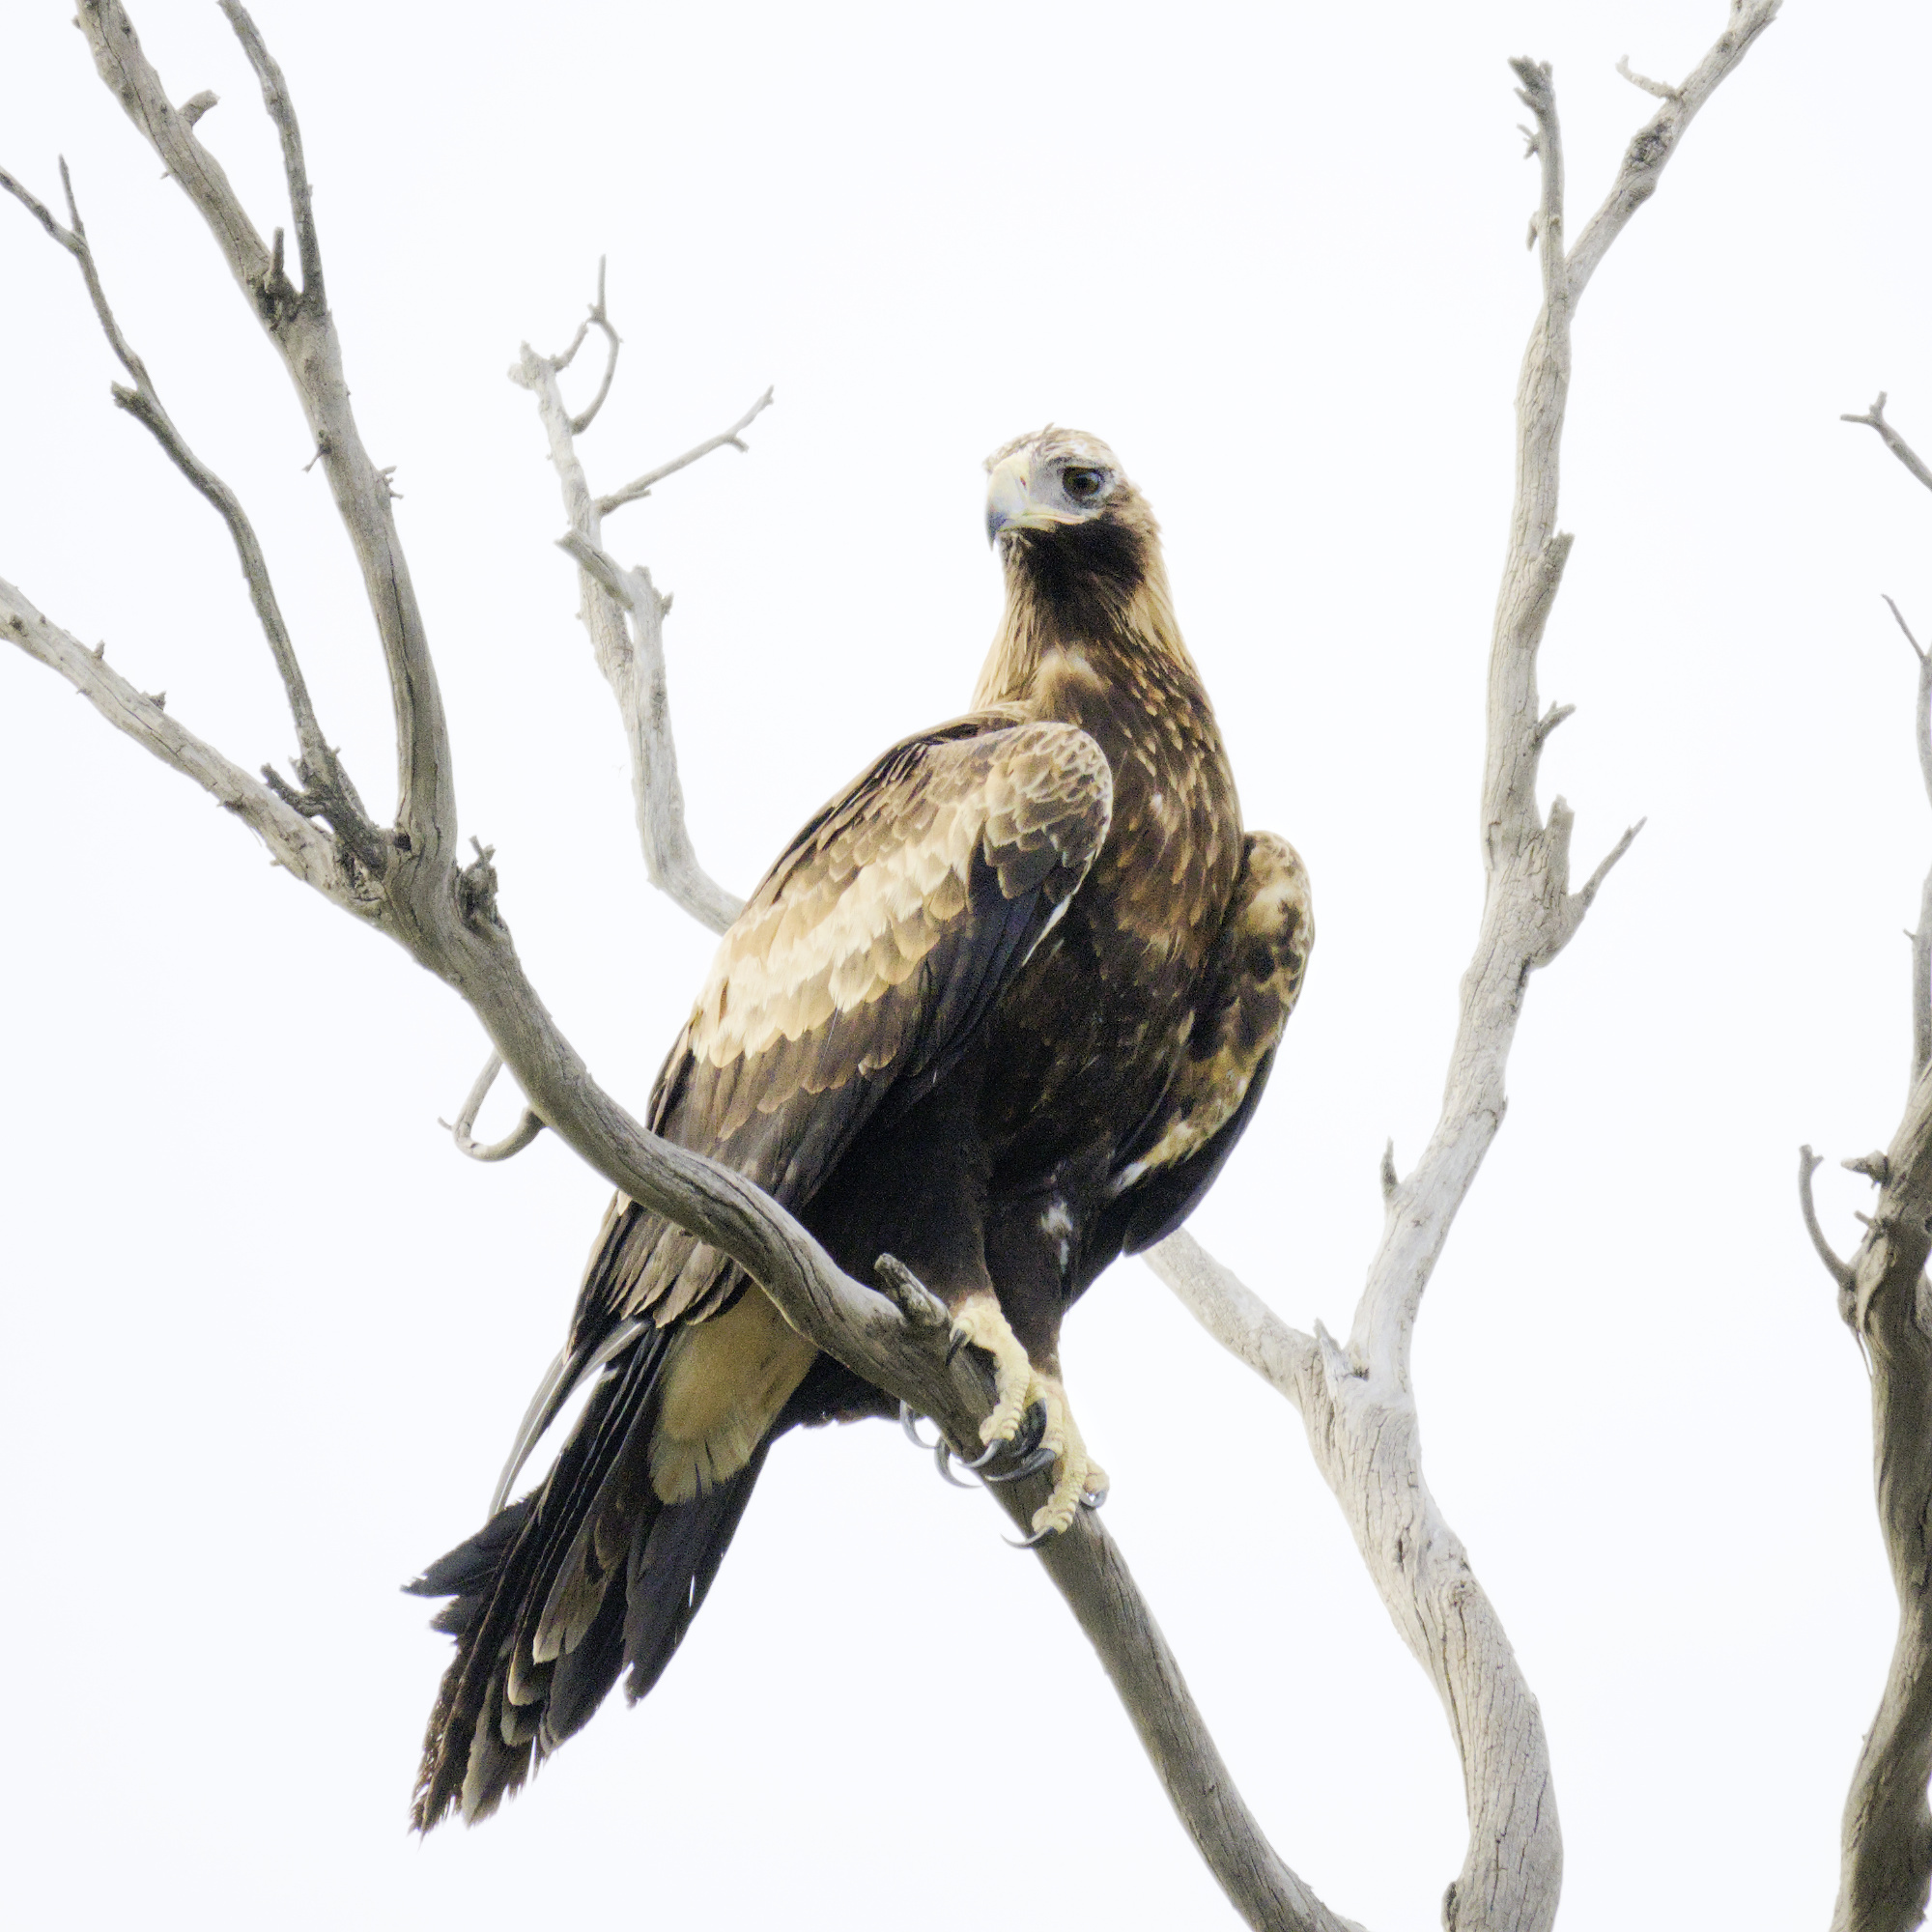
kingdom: Animalia
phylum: Chordata
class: Aves
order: Accipitriformes
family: Accipitridae
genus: Aquila
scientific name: Aquila audax
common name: Wedge-tailed eagle
